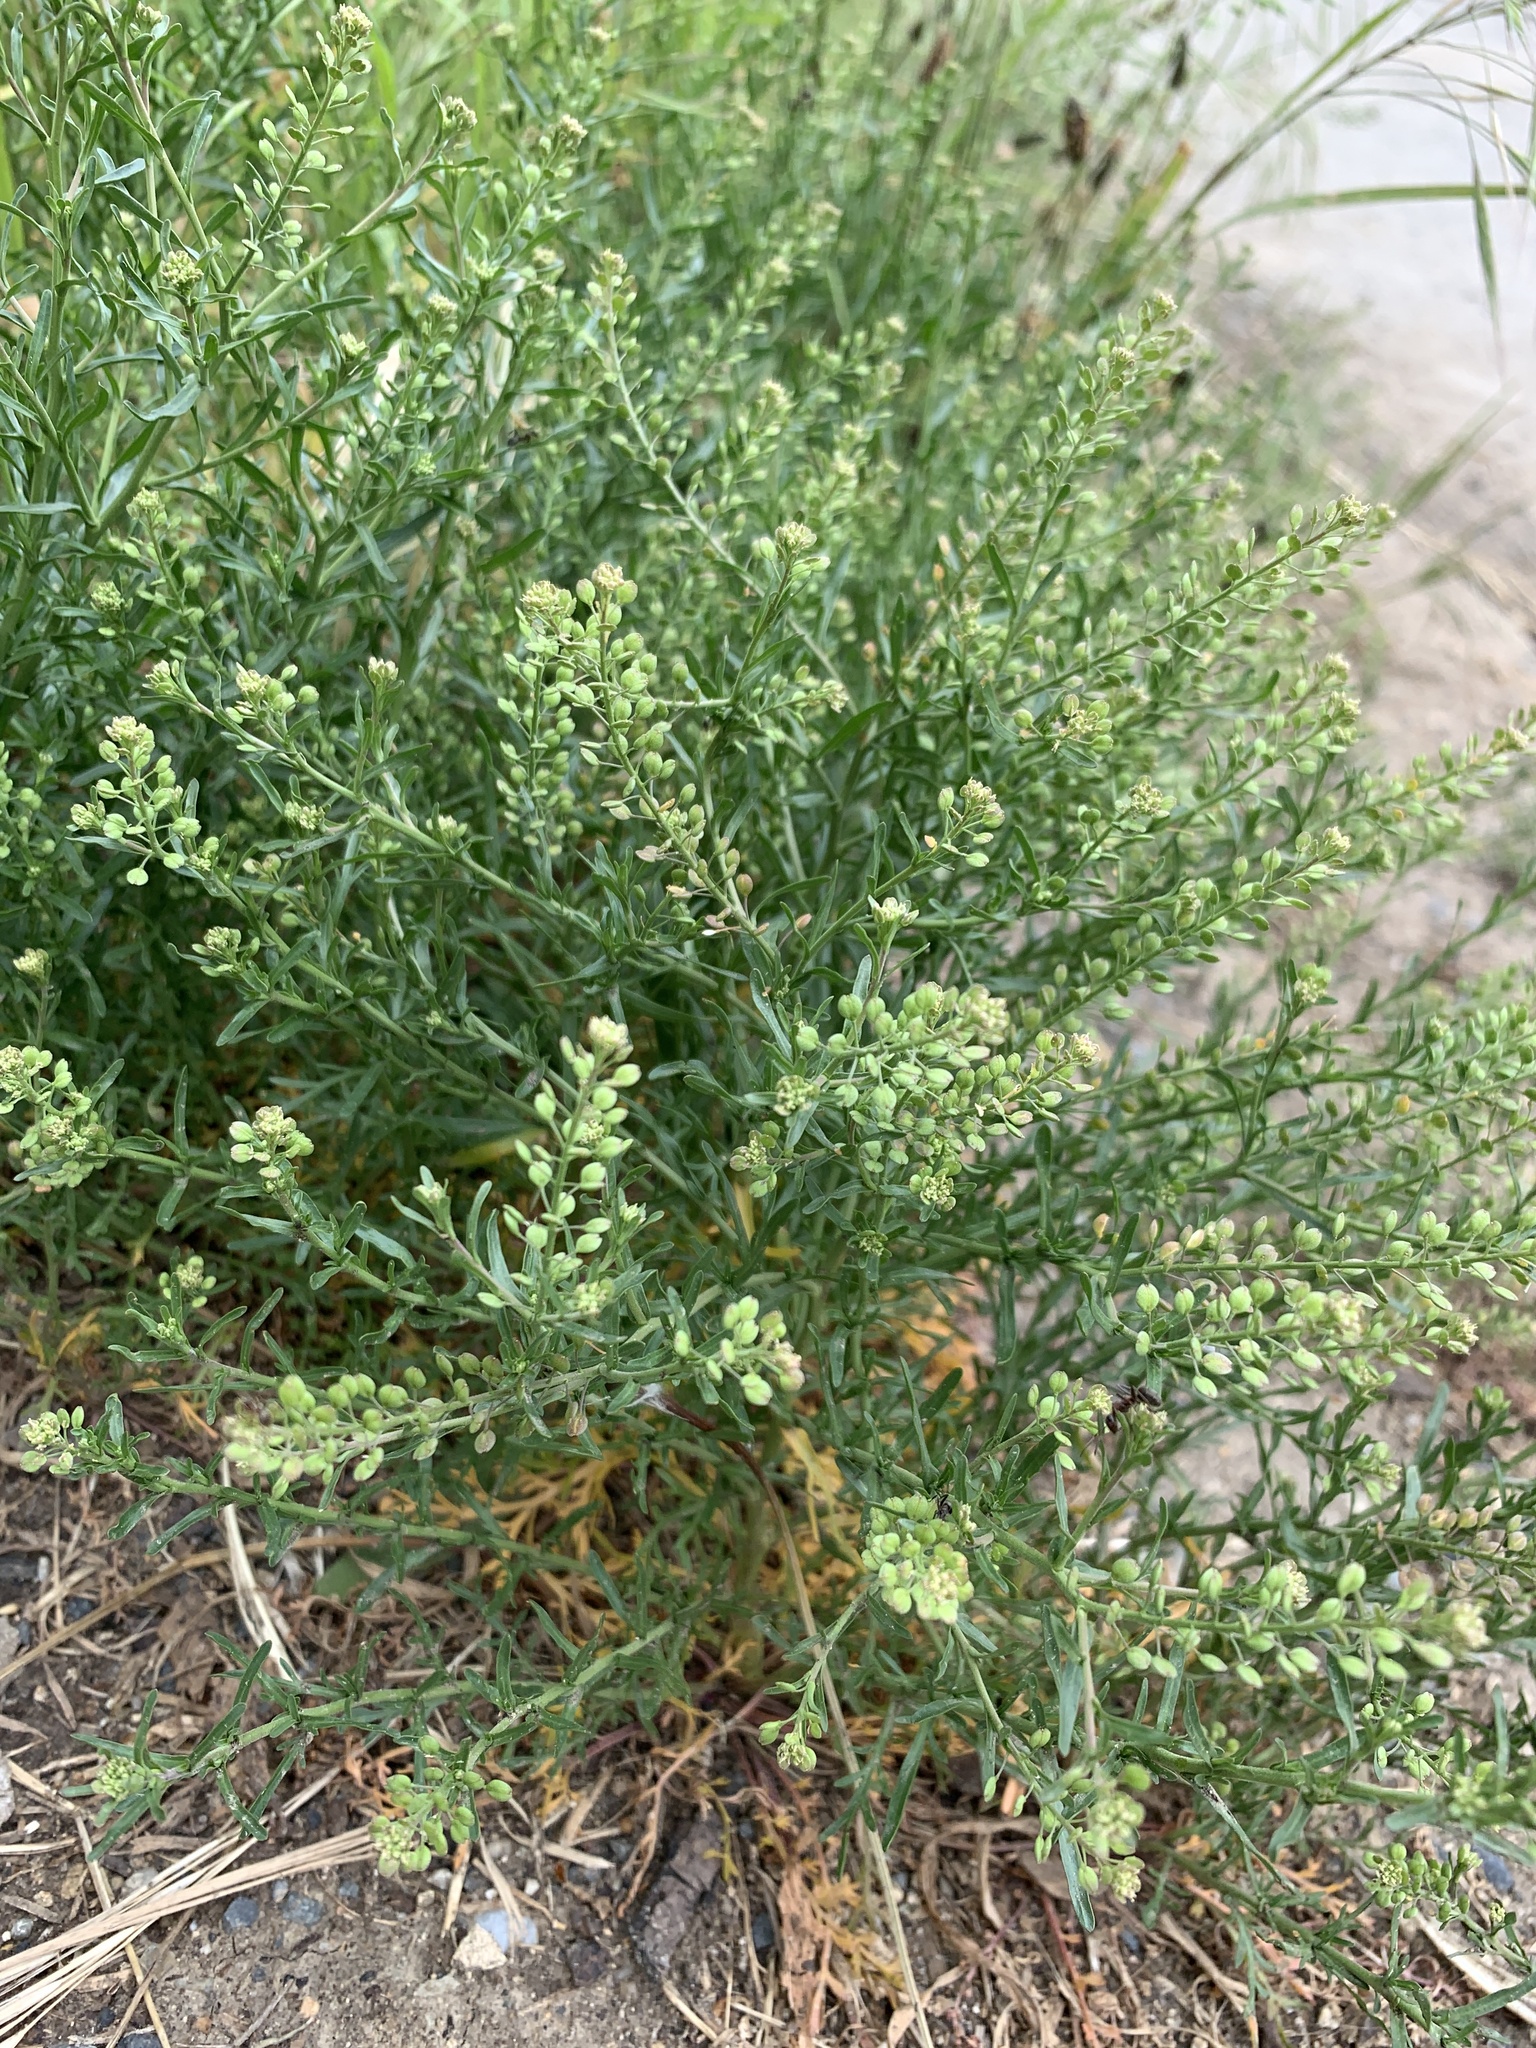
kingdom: Plantae
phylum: Tracheophyta
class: Magnoliopsida
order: Brassicales
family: Brassicaceae
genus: Lepidium
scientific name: Lepidium ruderale
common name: Narrow-leaved pepperwort
